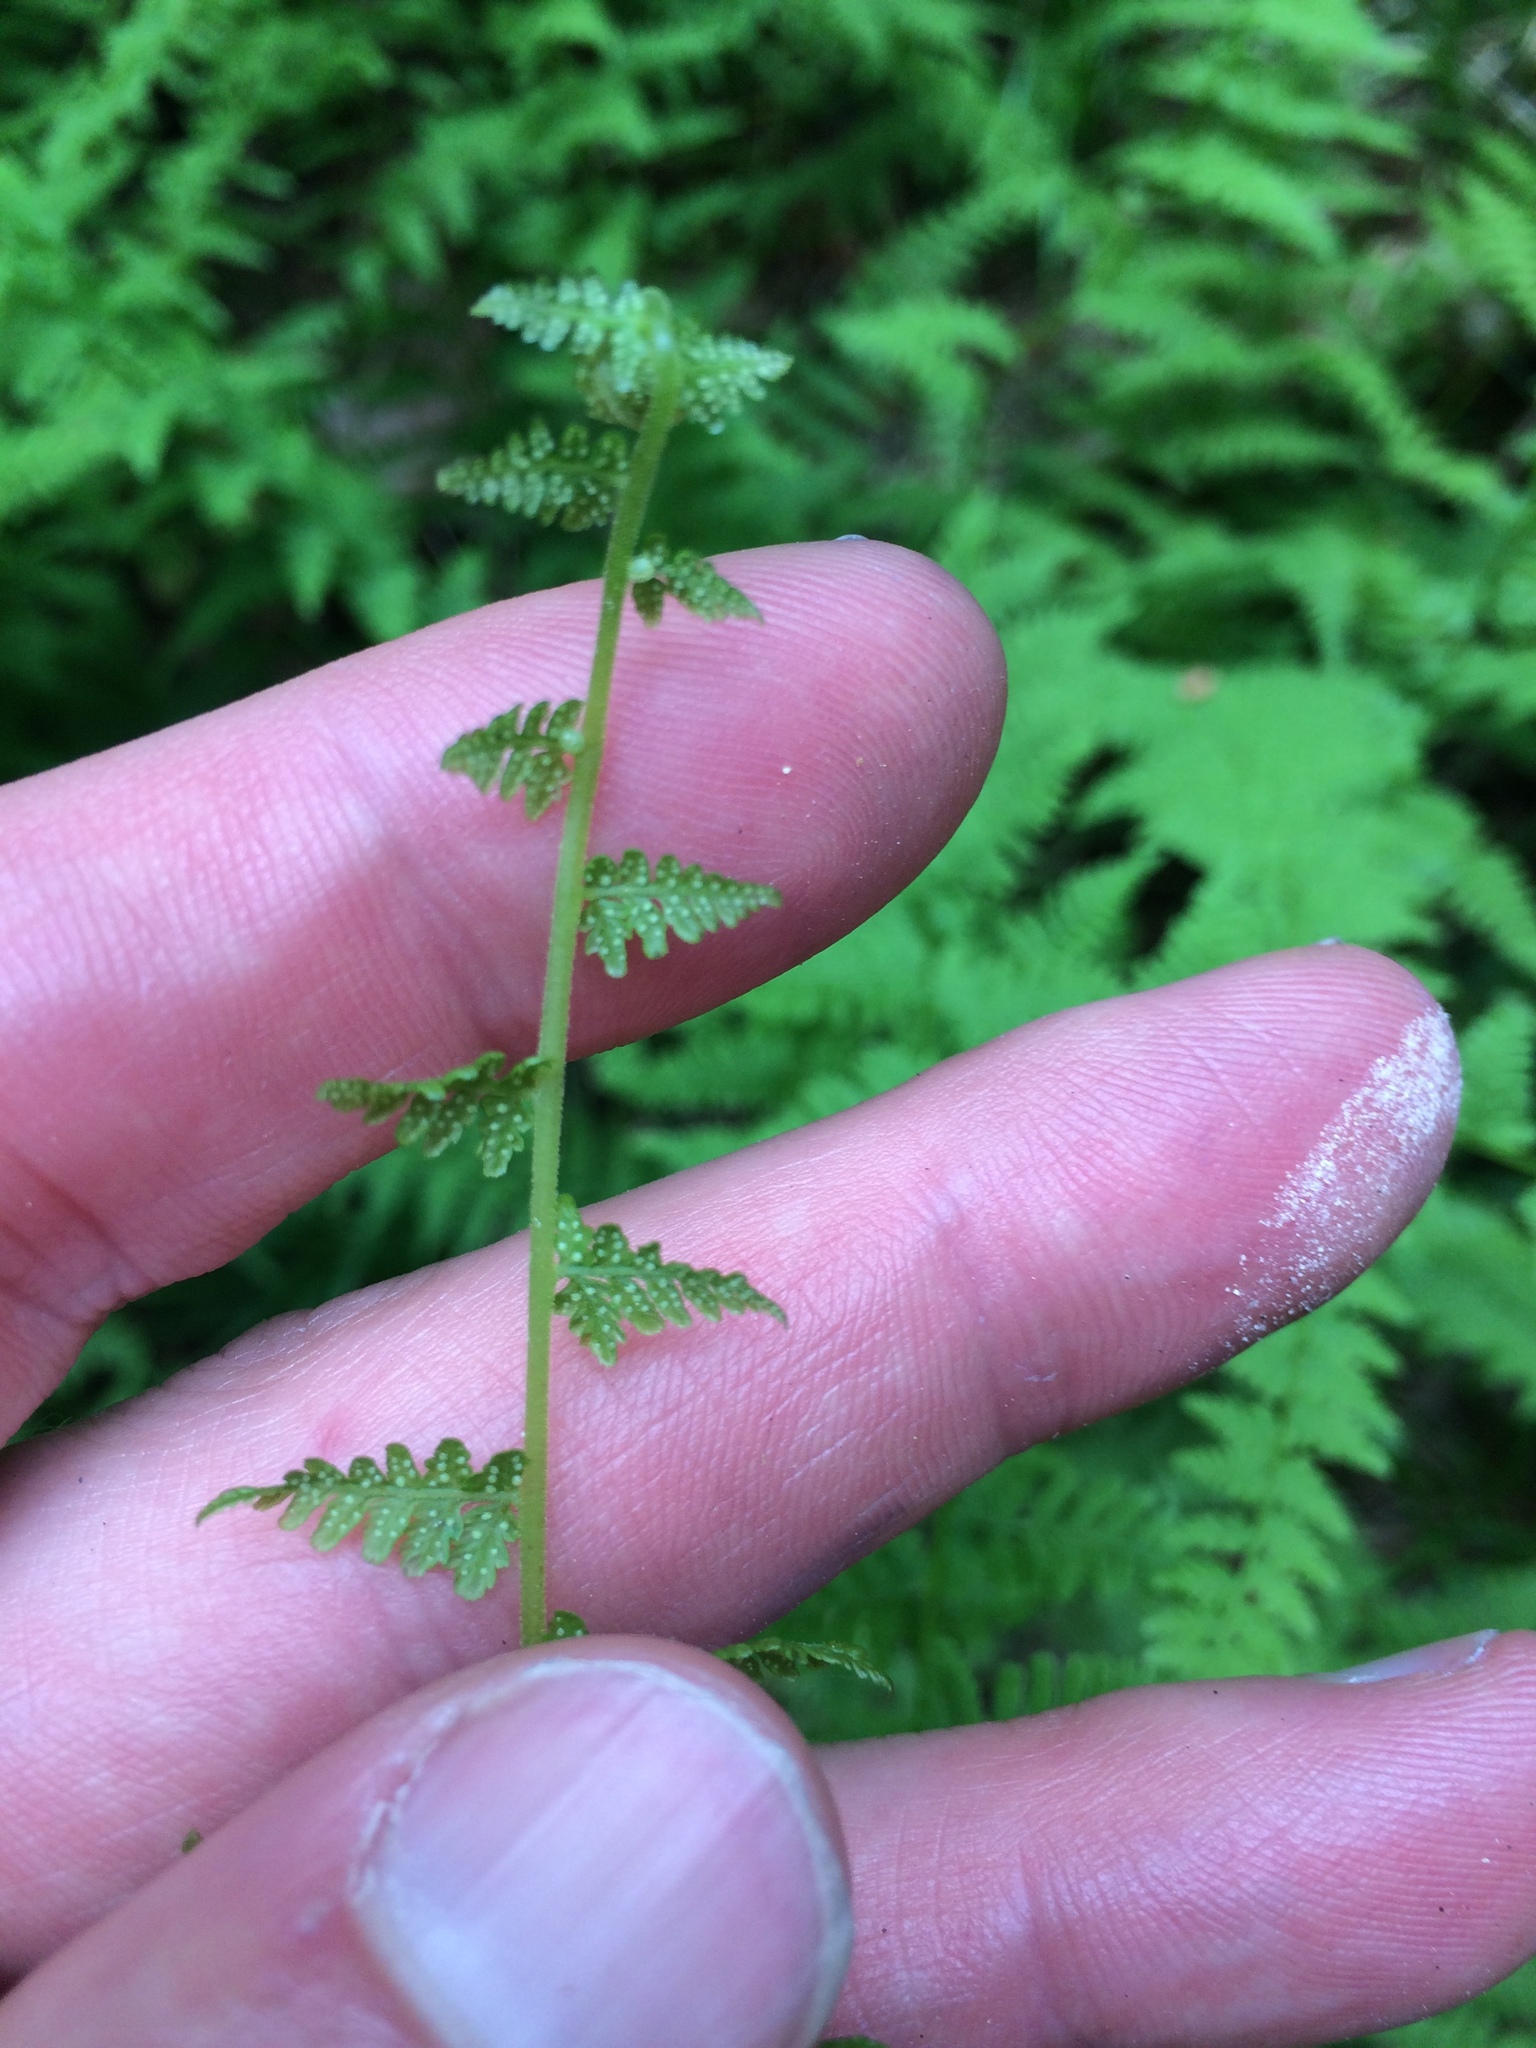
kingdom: Plantae
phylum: Tracheophyta
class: Polypodiopsida
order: Polypodiales
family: Cystopteridaceae
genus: Cystopteris
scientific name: Cystopteris bulbifera
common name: Bulblet bladder fern
